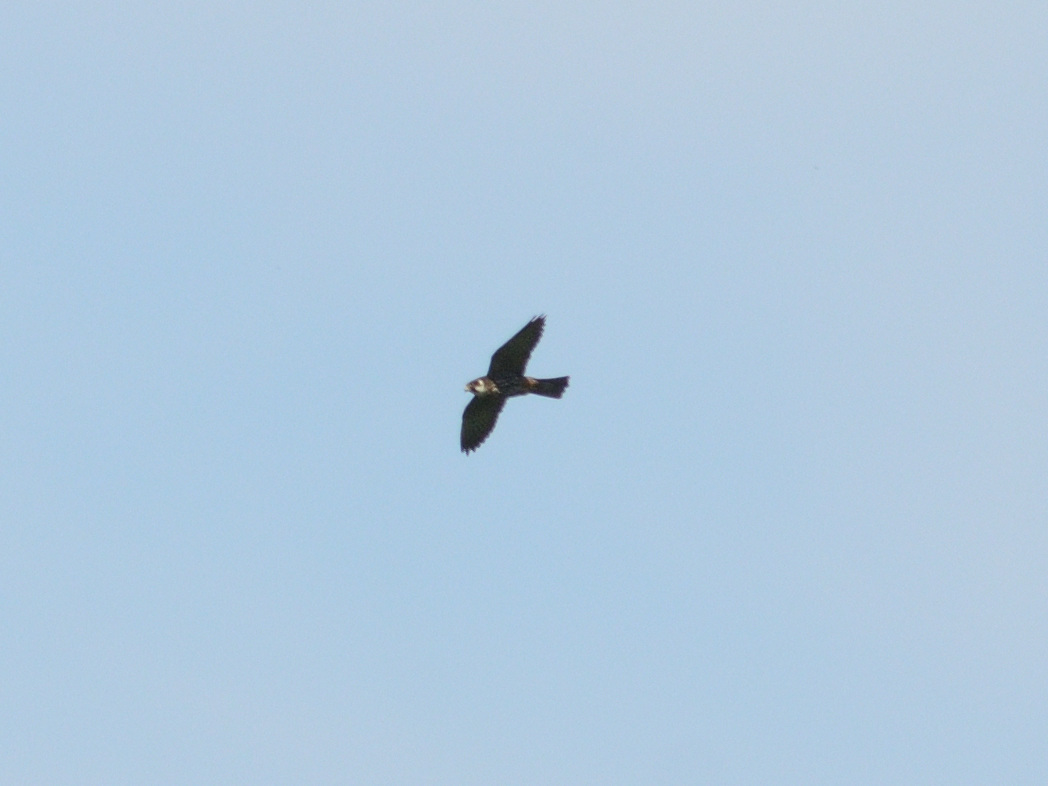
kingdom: Animalia
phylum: Chordata
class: Aves
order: Falconiformes
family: Falconidae
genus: Falco
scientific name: Falco subbuteo
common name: Eurasian hobby
